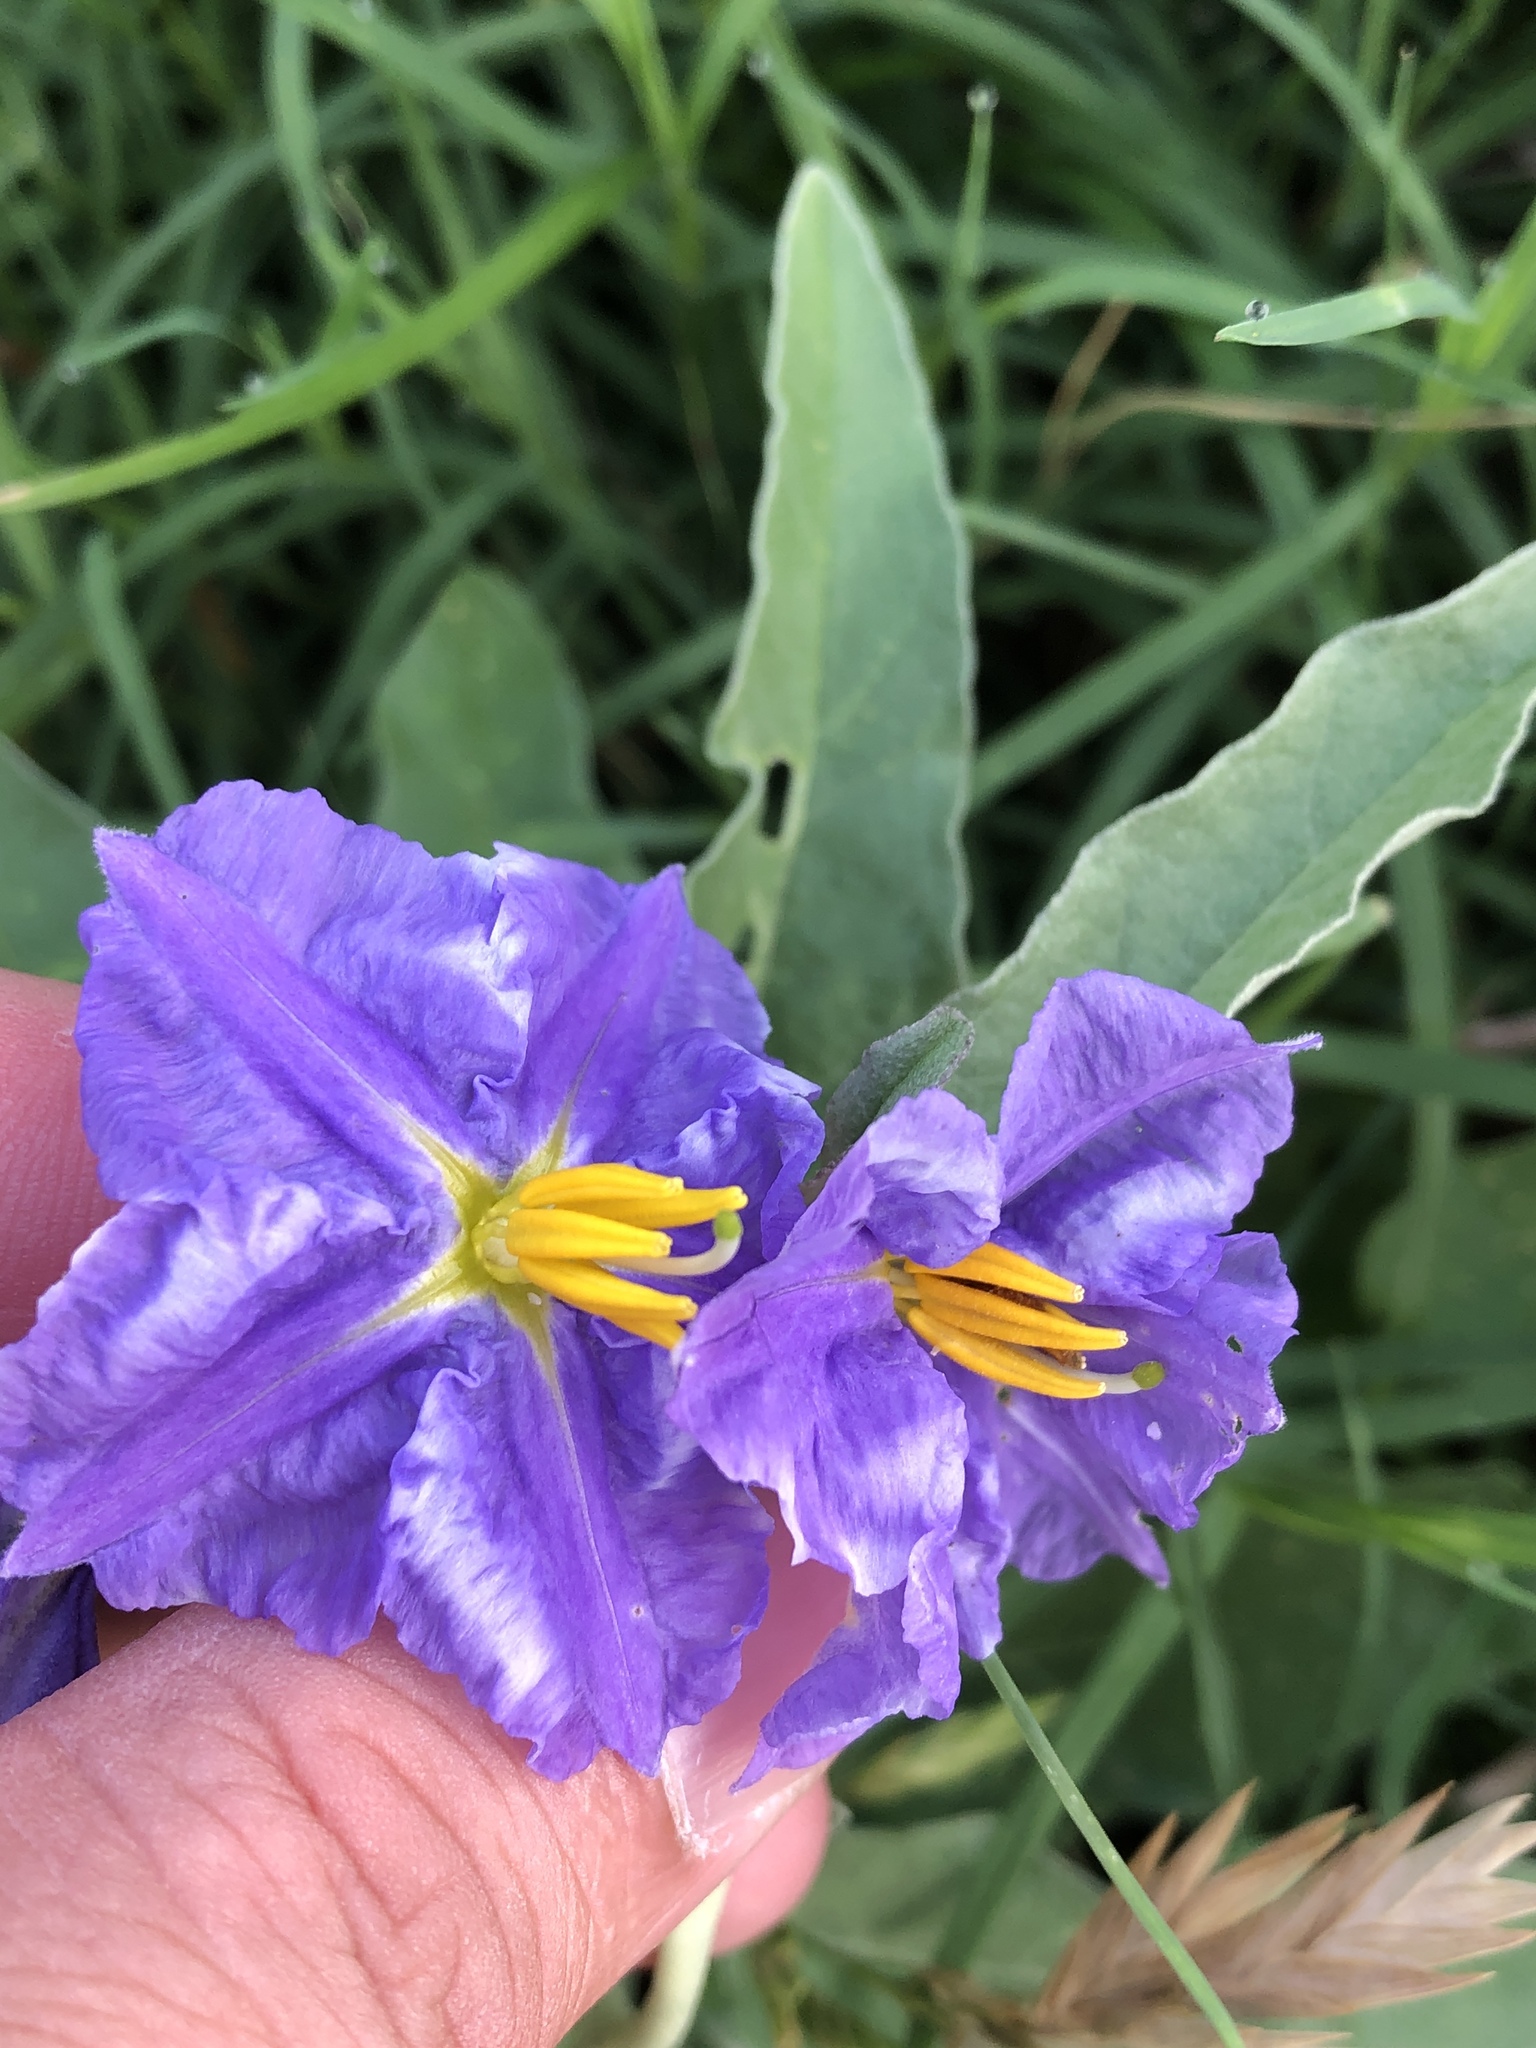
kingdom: Plantae
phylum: Tracheophyta
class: Magnoliopsida
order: Solanales
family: Solanaceae
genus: Solanum
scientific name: Solanum elaeagnifolium
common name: Silverleaf nightshade
